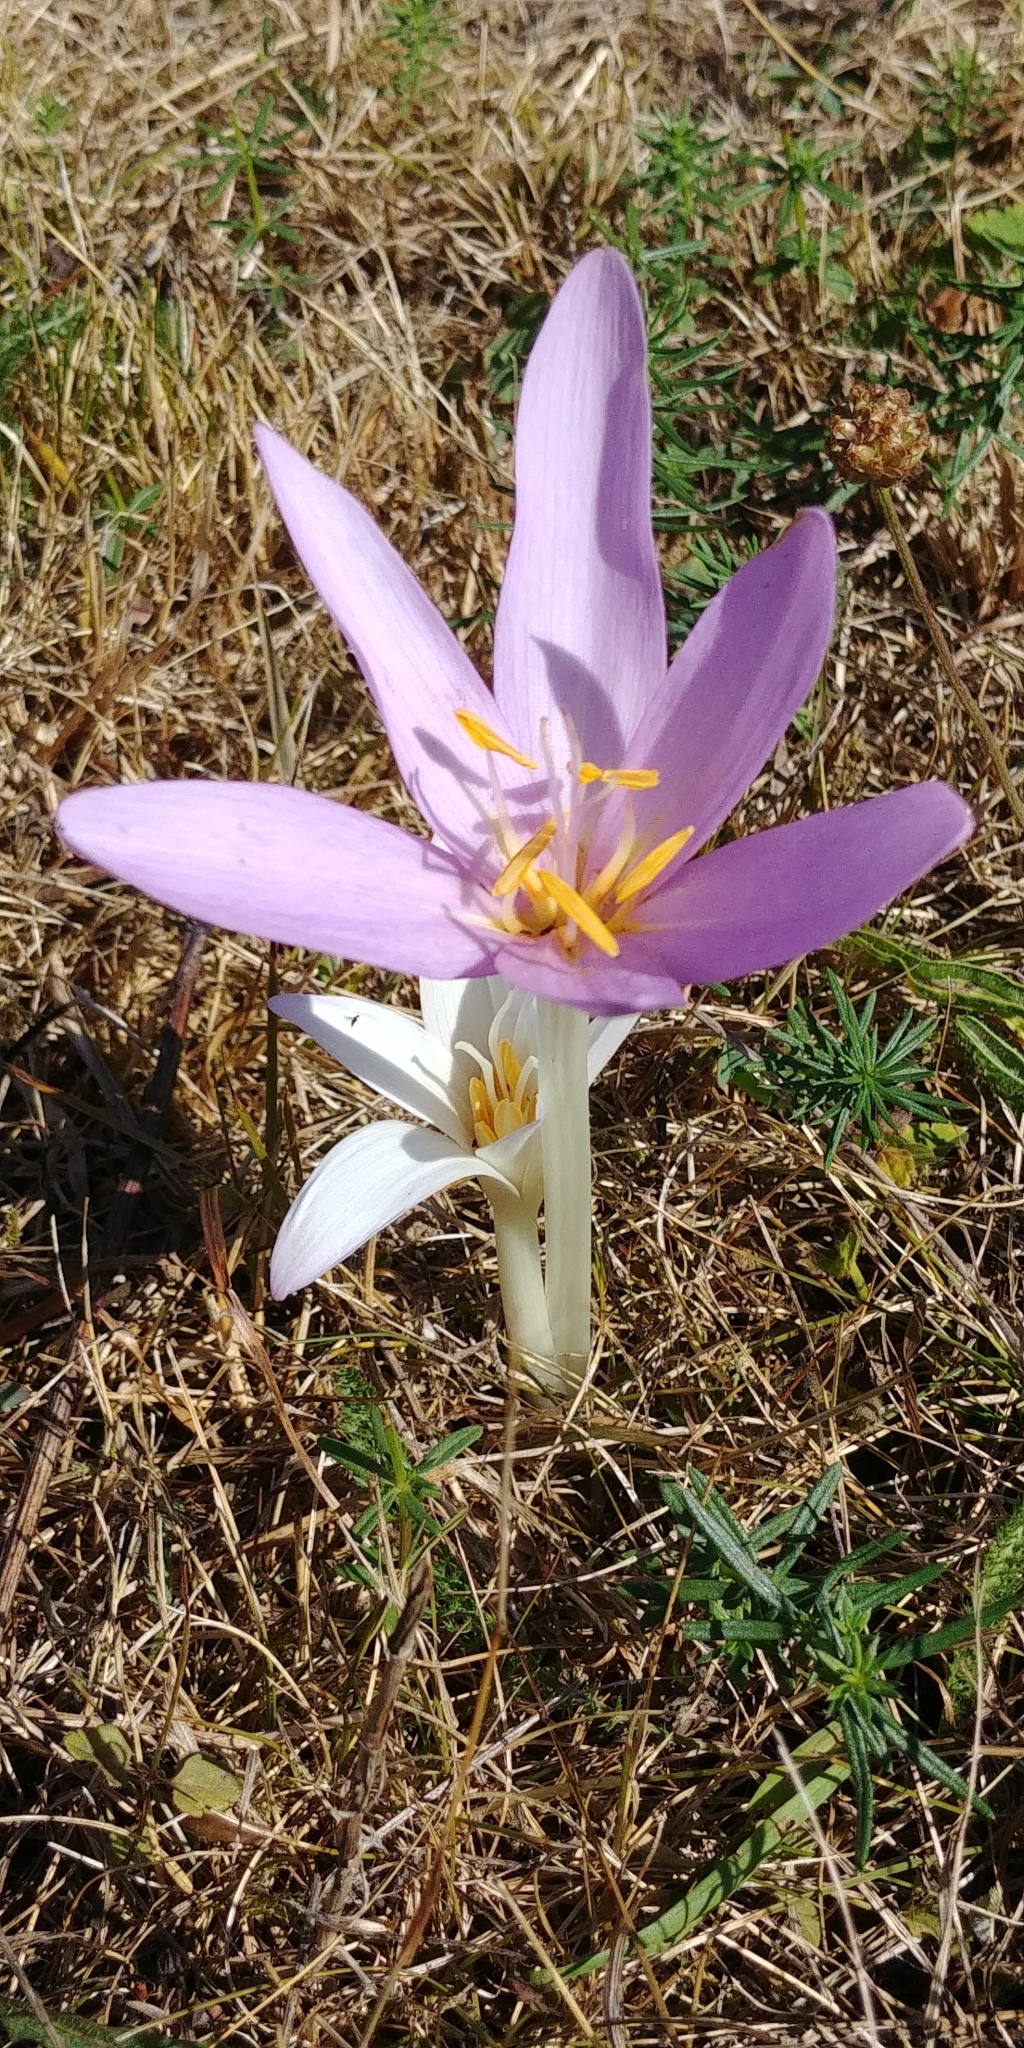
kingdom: Plantae
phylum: Tracheophyta
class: Liliopsida
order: Liliales
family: Colchicaceae
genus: Colchicum
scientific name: Colchicum autumnale
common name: Autumn crocus
